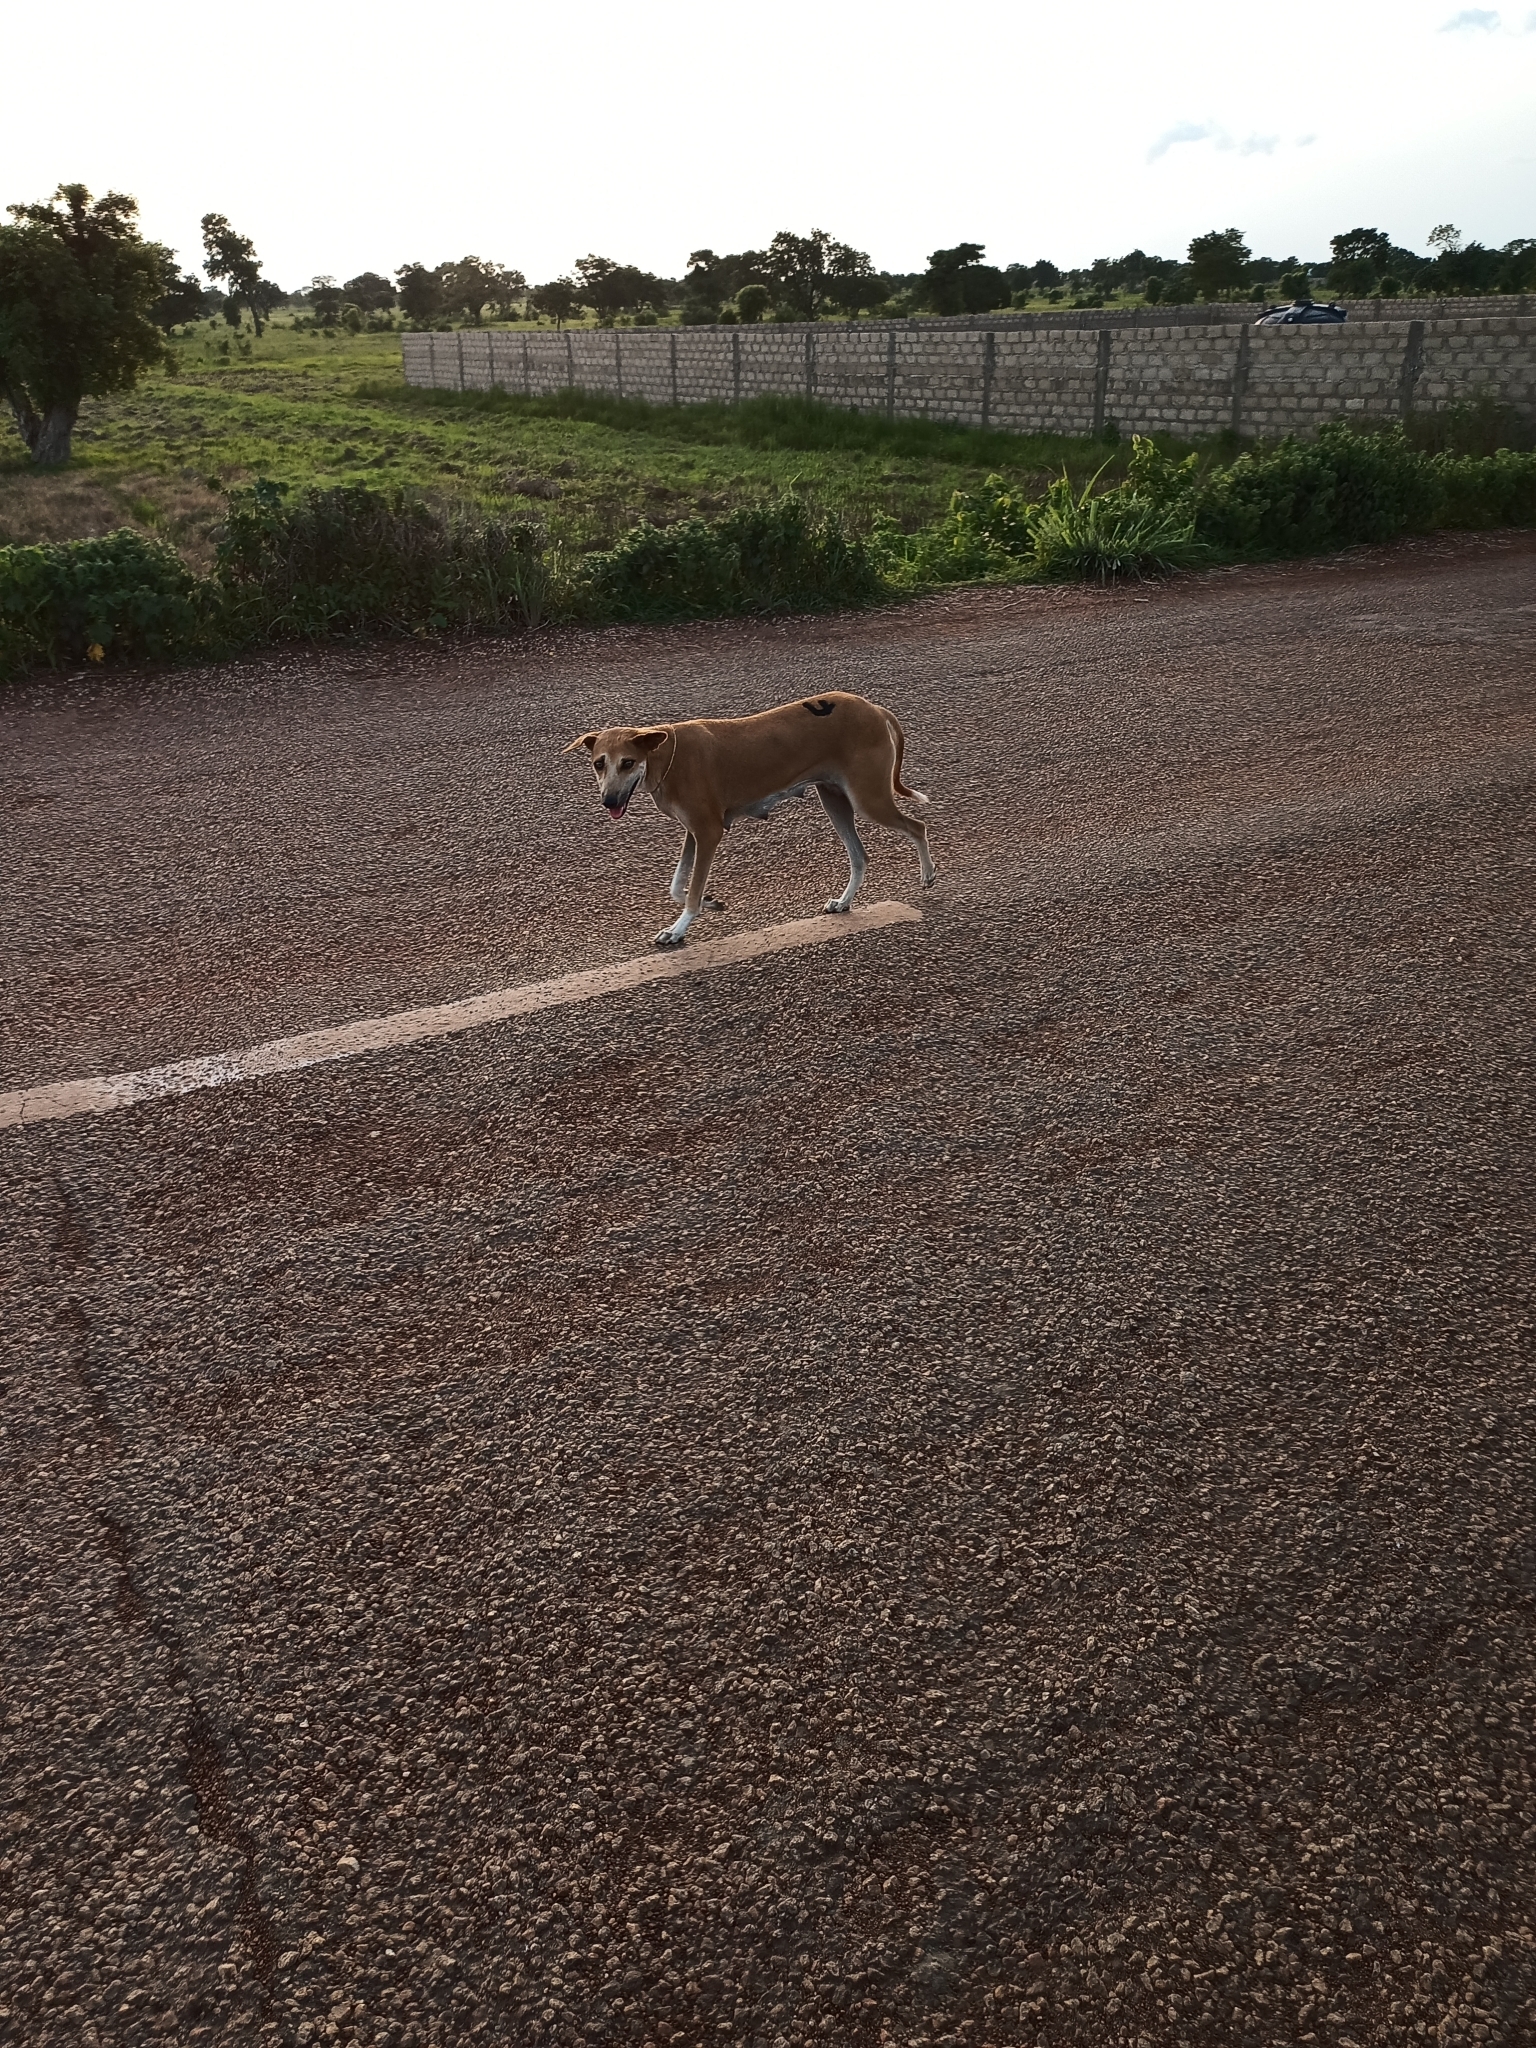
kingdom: Animalia
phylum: Chordata
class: Mammalia
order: Carnivora
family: Canidae
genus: Canis
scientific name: Canis lupus
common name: Gray wolf
